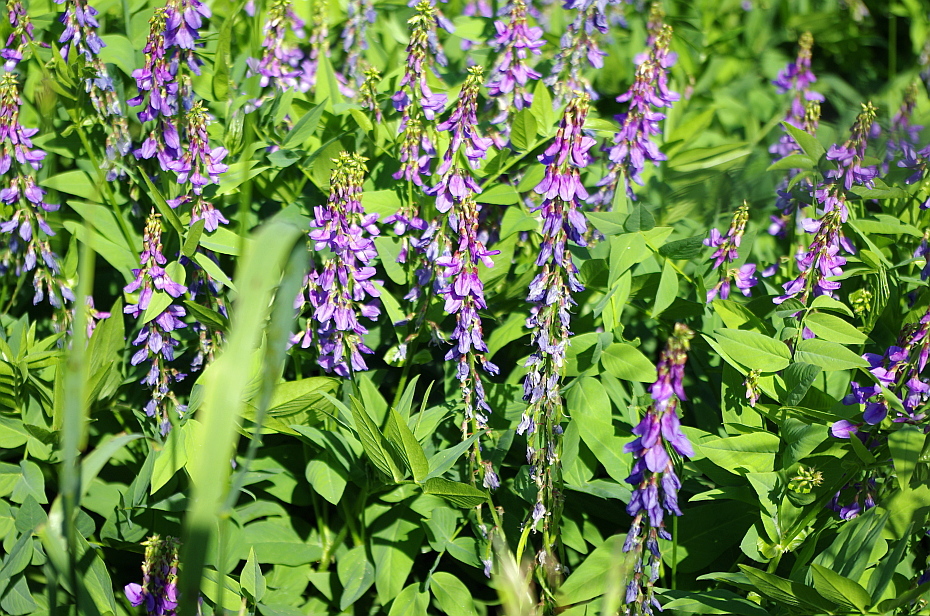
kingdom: Plantae
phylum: Tracheophyta
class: Magnoliopsida
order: Fabales
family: Fabaceae
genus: Galega
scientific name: Galega orientalis
